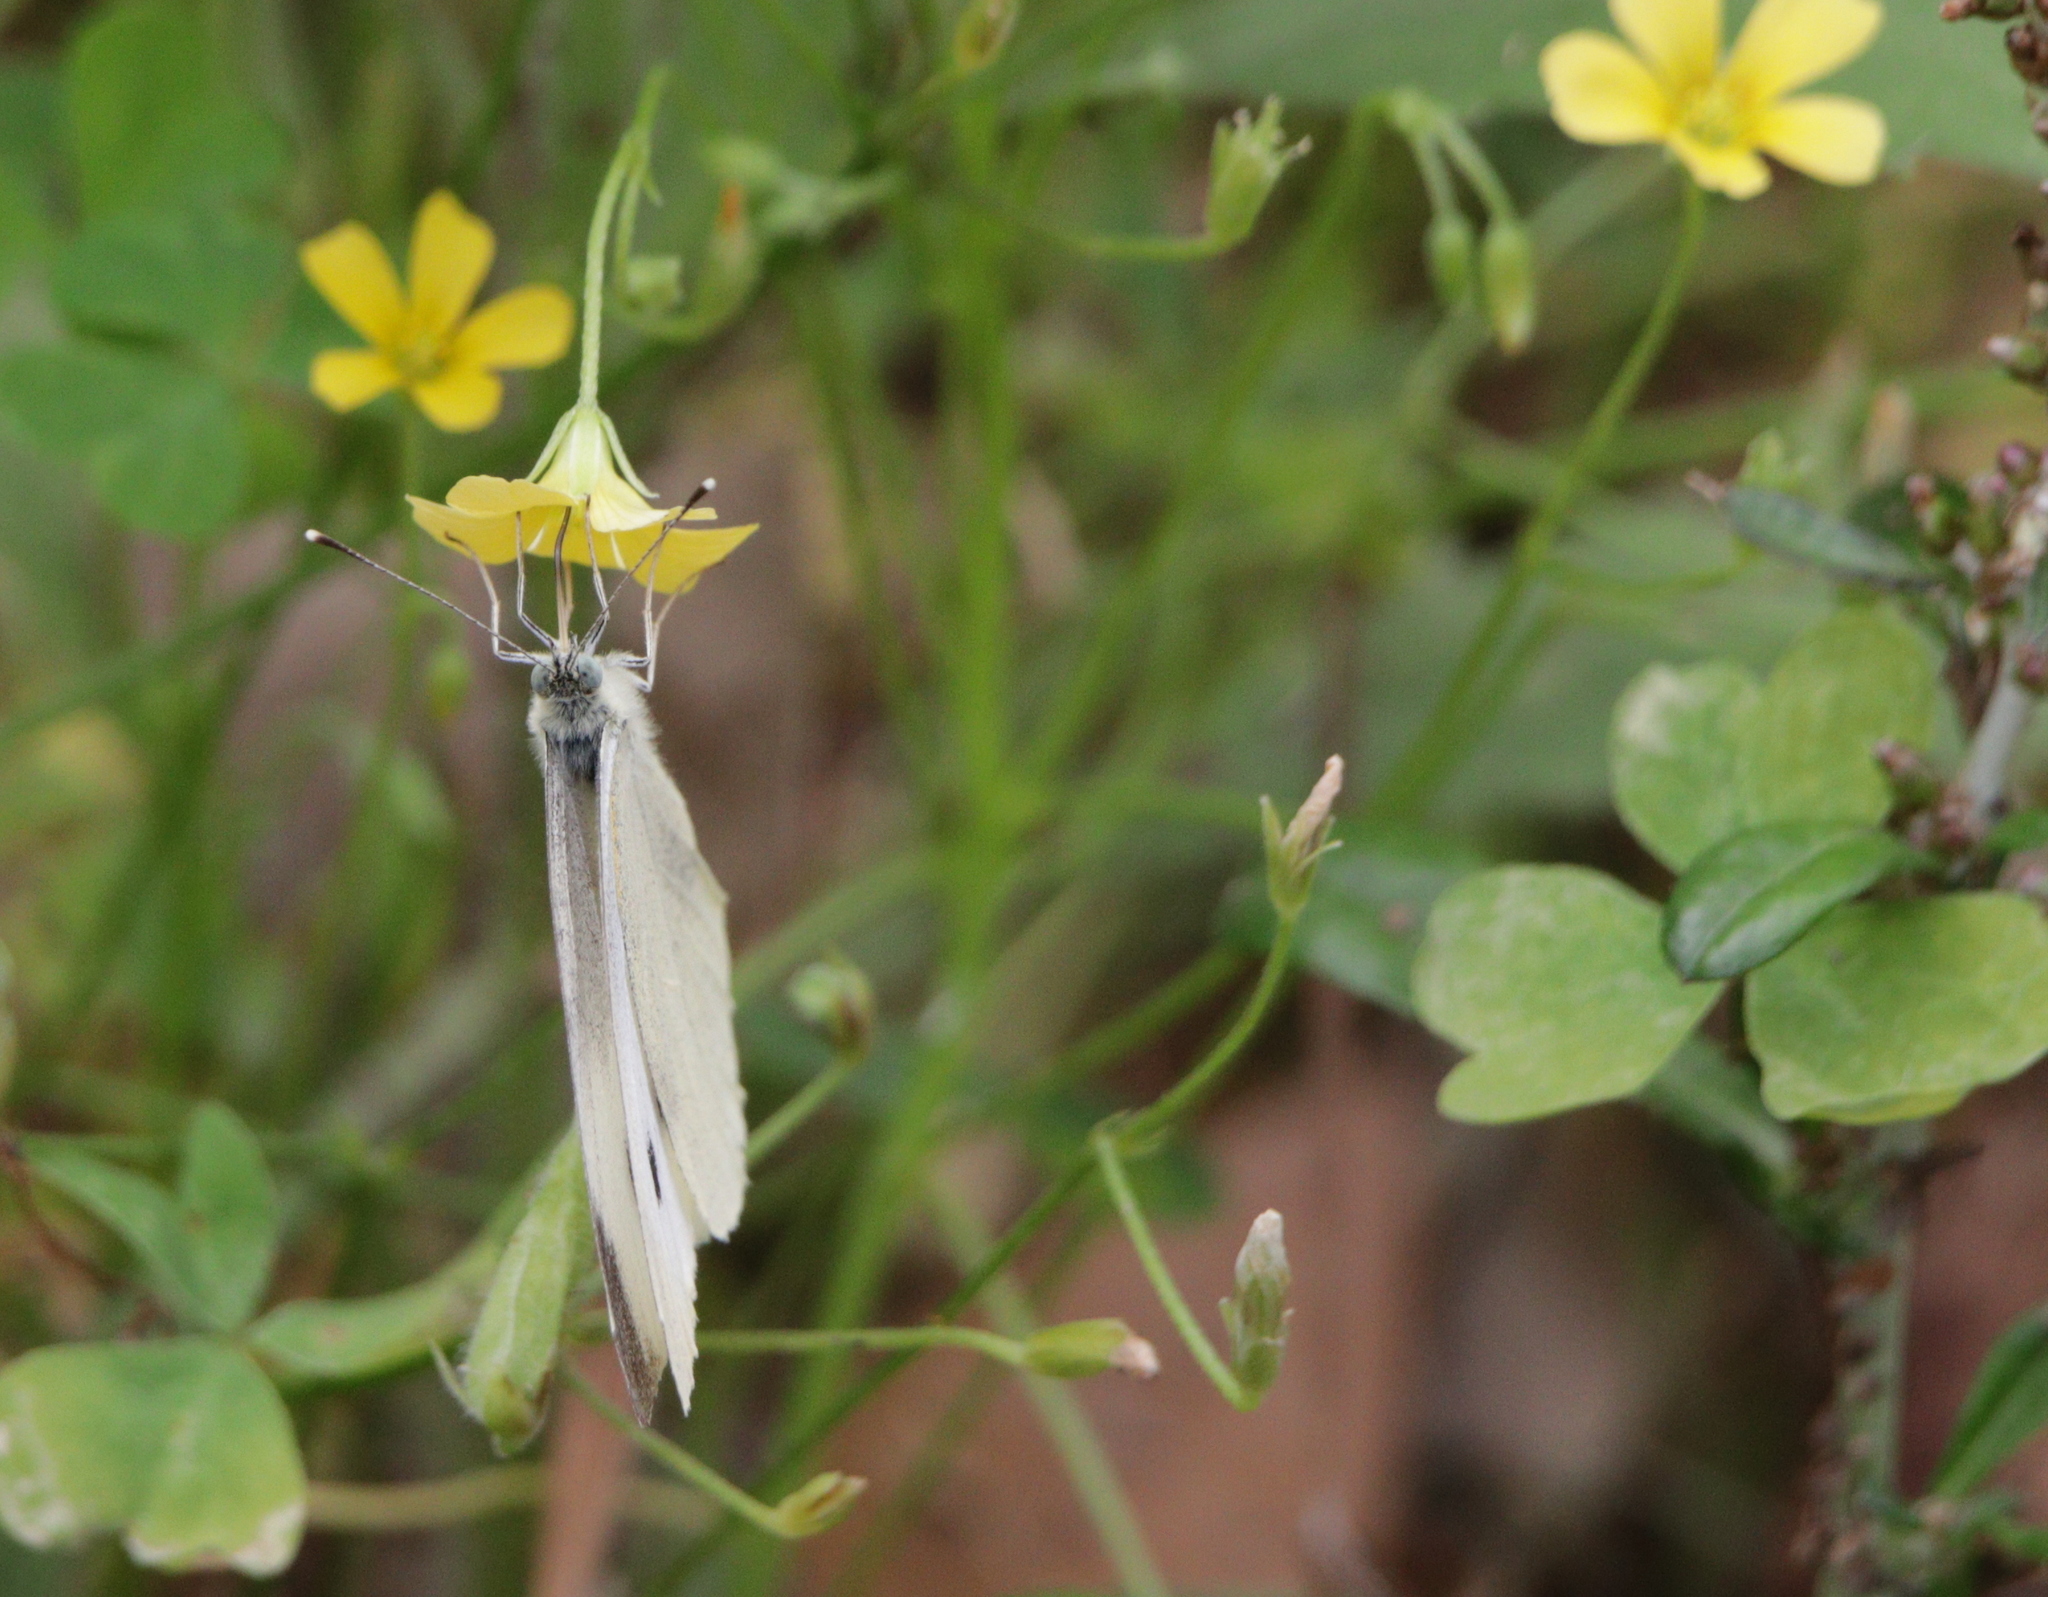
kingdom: Animalia
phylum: Arthropoda
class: Insecta
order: Lepidoptera
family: Pieridae
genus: Pieris
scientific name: Pieris rapae
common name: Small white
